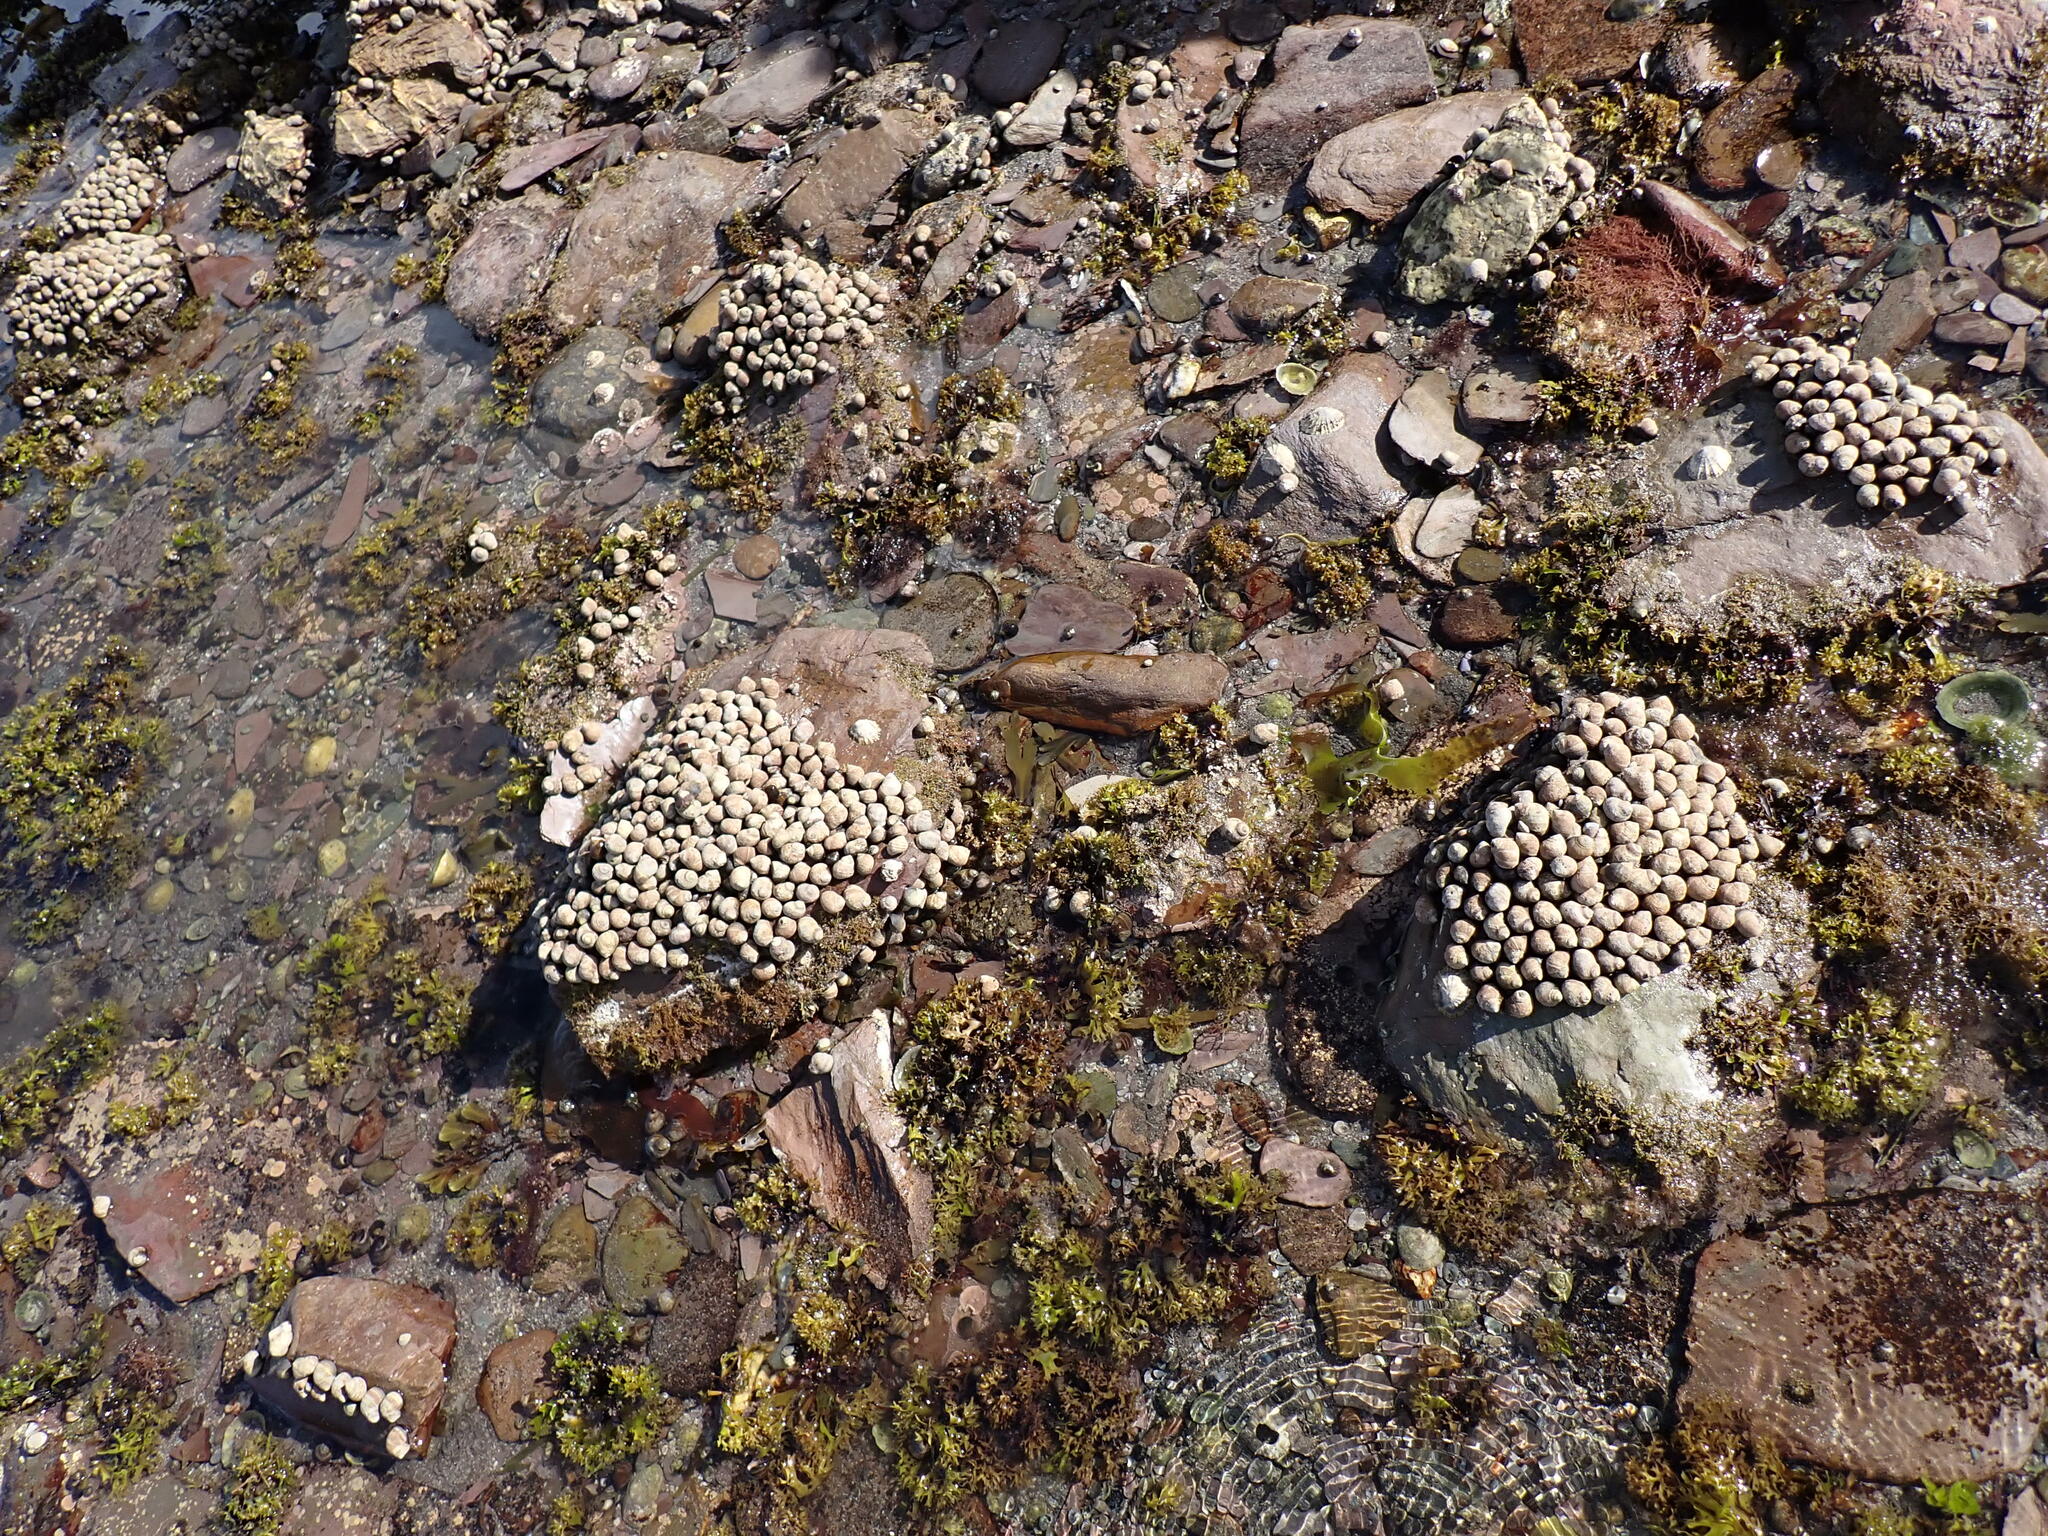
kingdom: Animalia
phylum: Mollusca
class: Gastropoda
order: Littorinimorpha
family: Littorinidae
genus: Littorina
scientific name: Littorina littorea
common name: Common periwinkle
